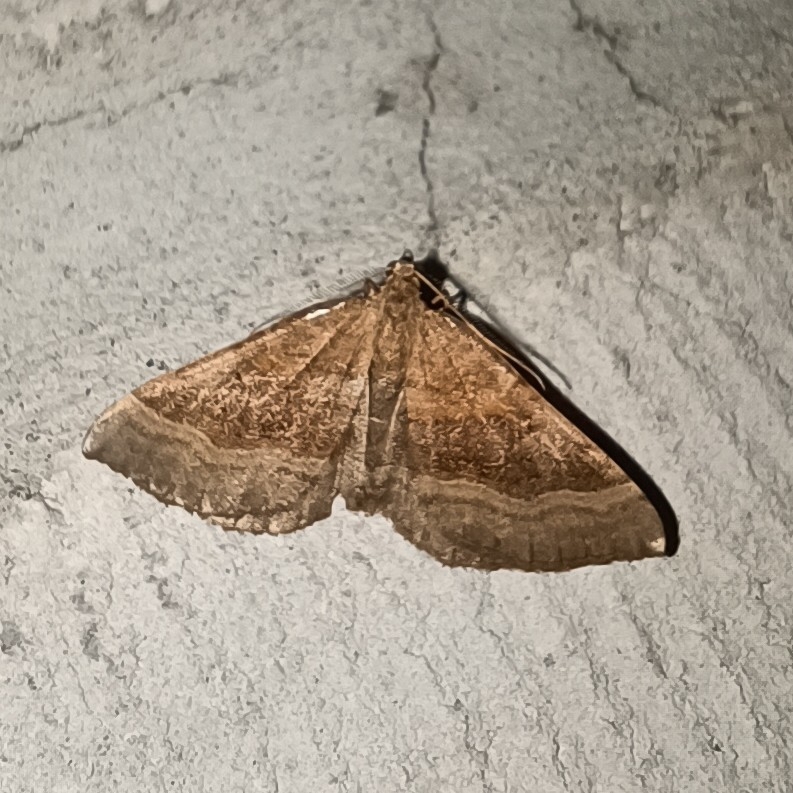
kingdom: Animalia
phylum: Arthropoda
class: Insecta
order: Lepidoptera
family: Geometridae
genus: Scotopteryx
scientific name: Scotopteryx chenopodiata
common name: Shaded broad-bar
